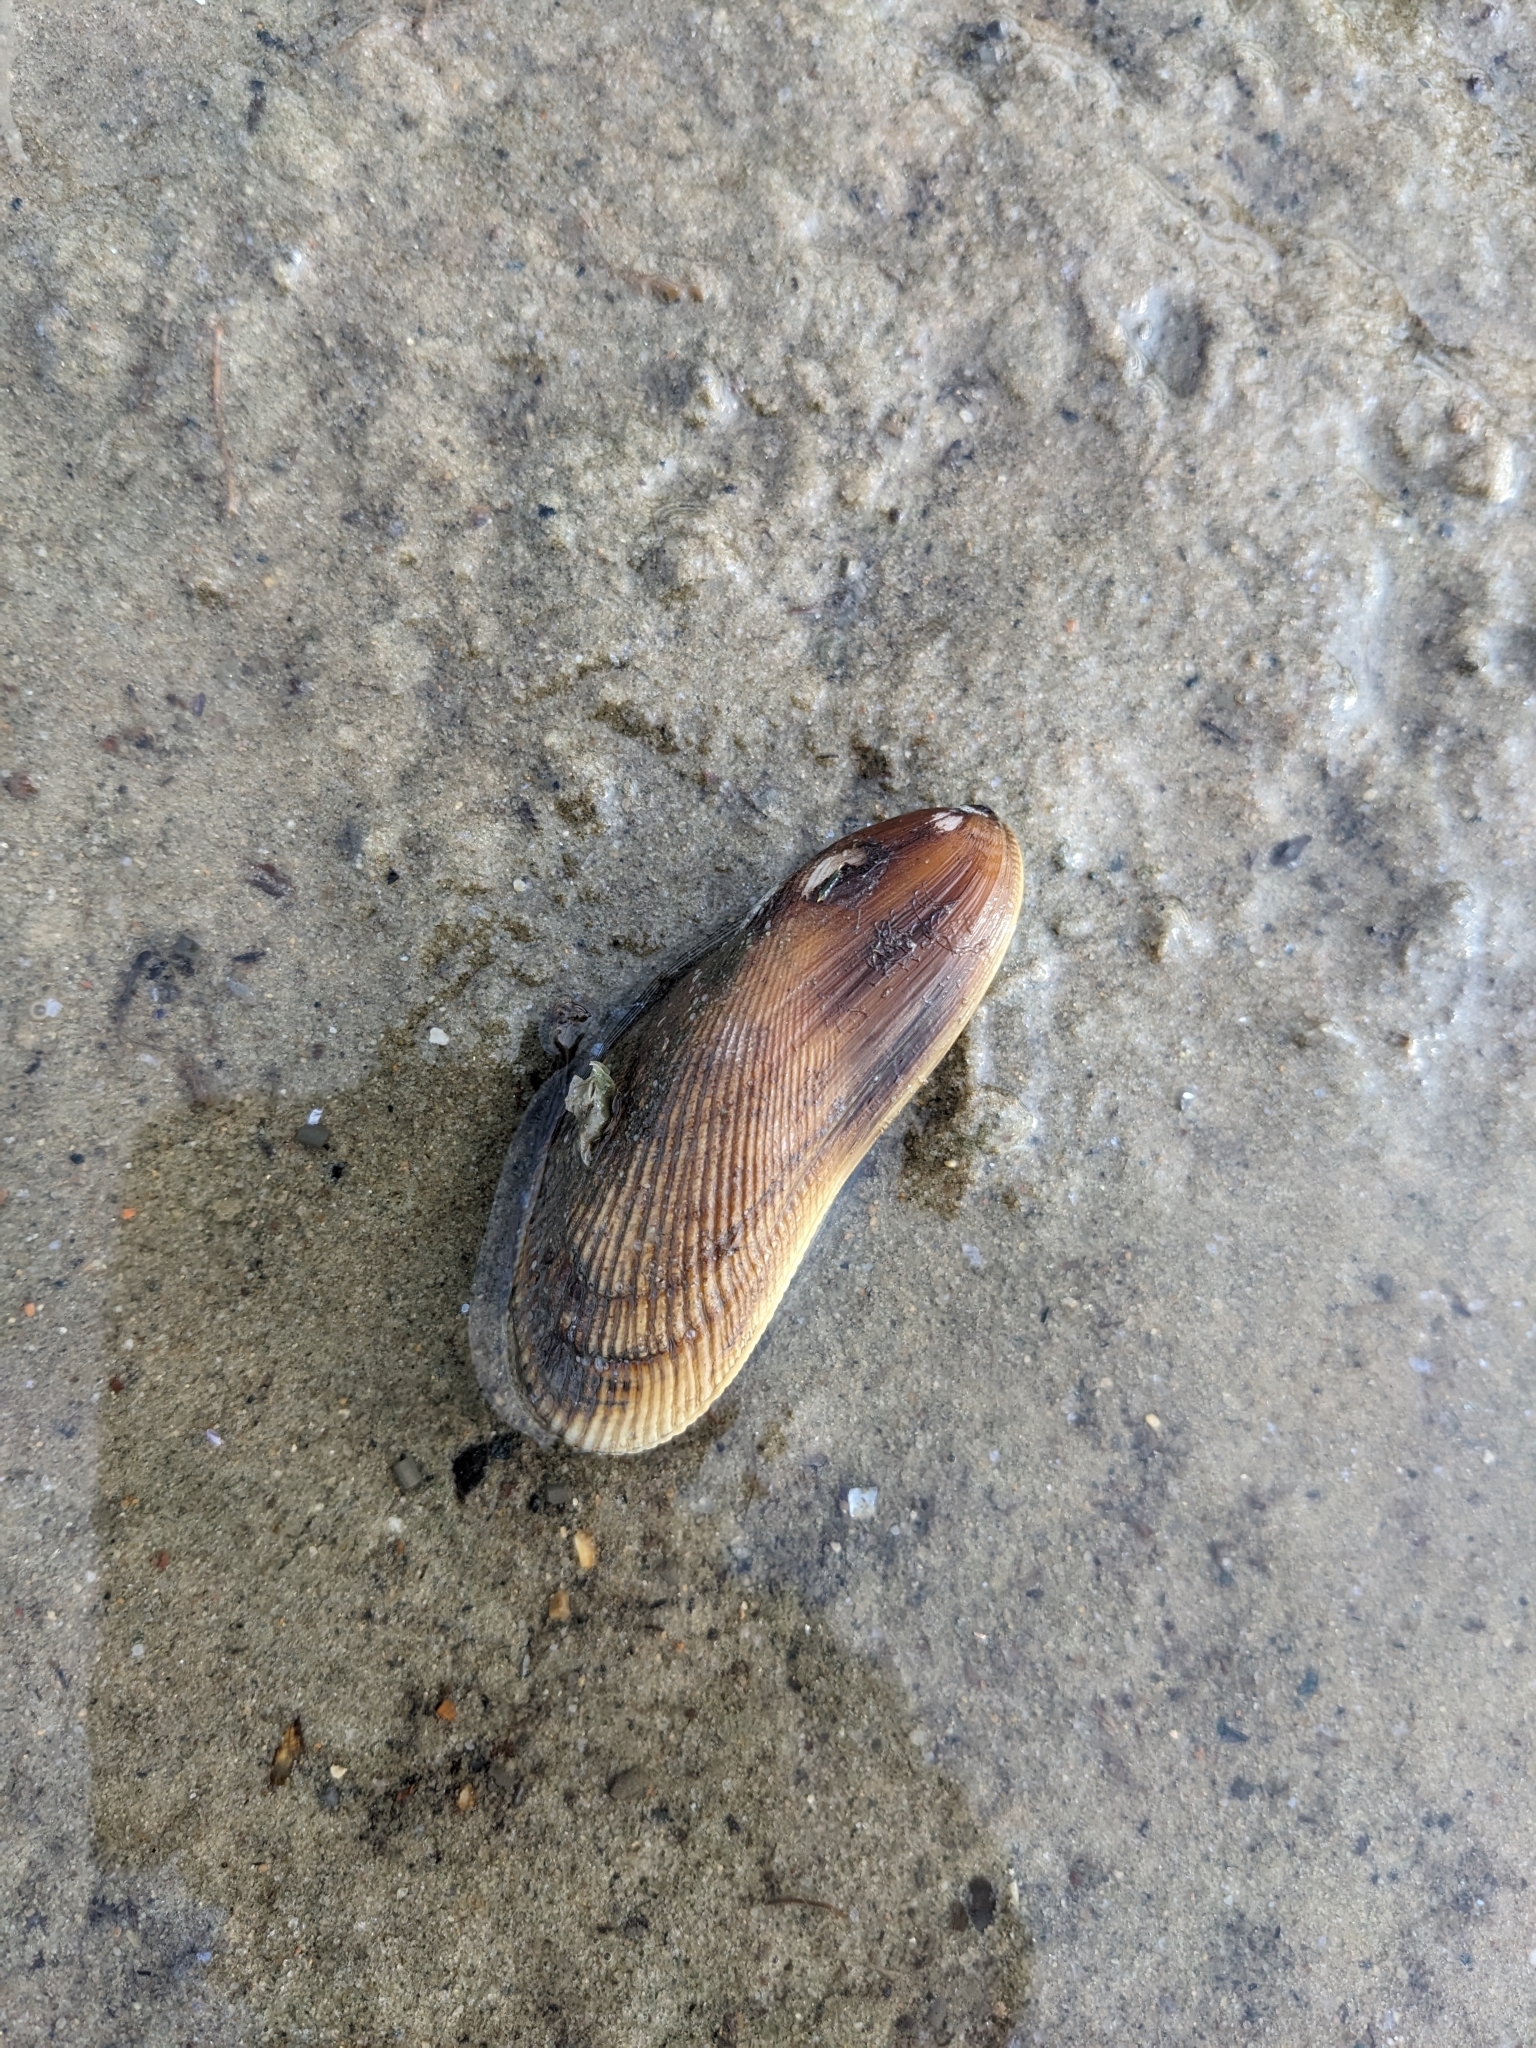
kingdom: Animalia
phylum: Mollusca
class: Bivalvia
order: Mytilida
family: Mytilidae
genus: Geukensia
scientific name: Geukensia demissa
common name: Ribbed mussel
